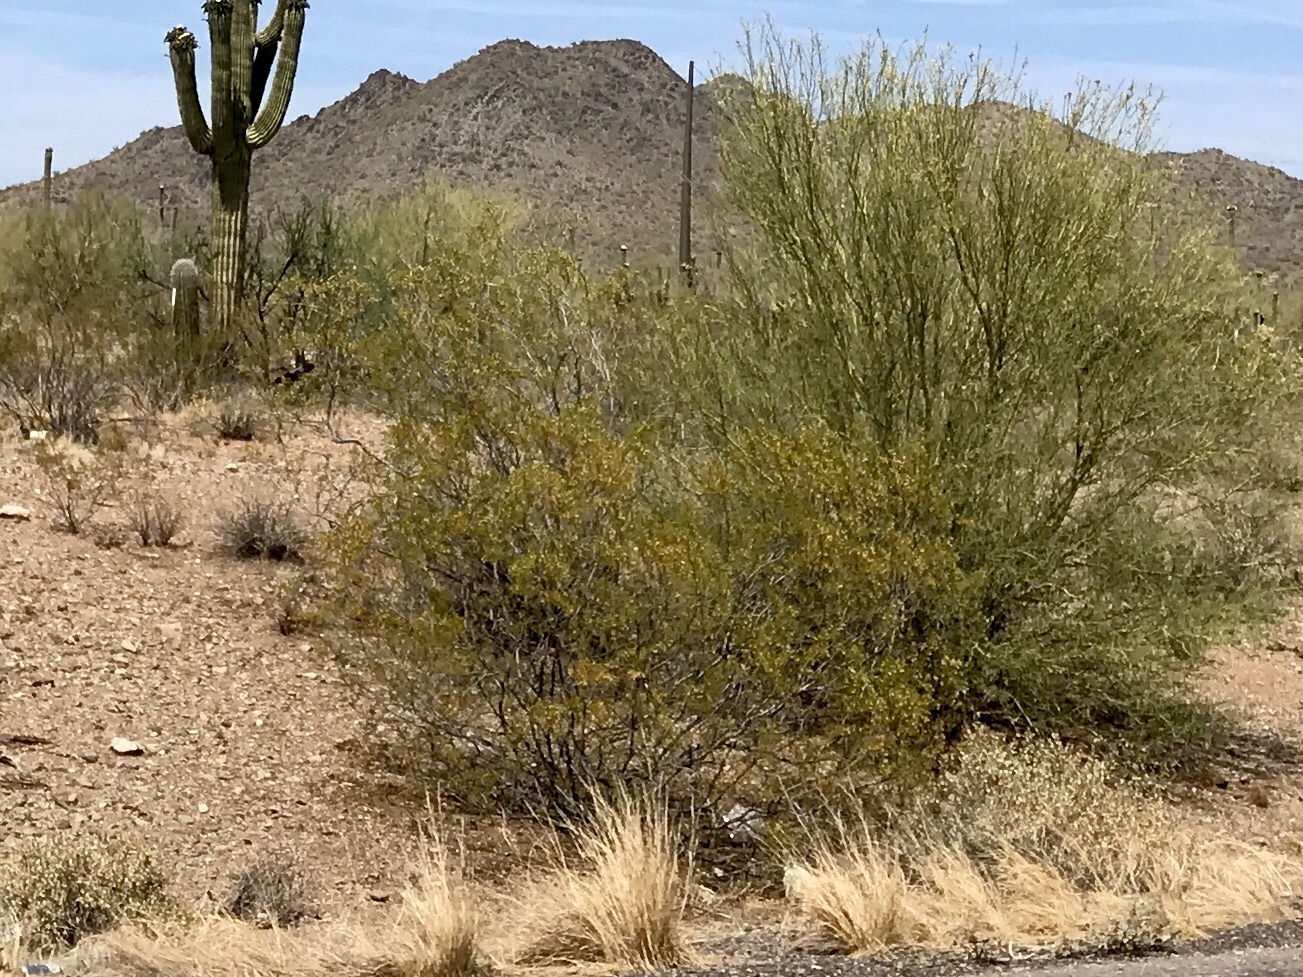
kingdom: Plantae
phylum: Tracheophyta
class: Magnoliopsida
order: Zygophyllales
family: Zygophyllaceae
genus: Larrea
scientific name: Larrea tridentata
